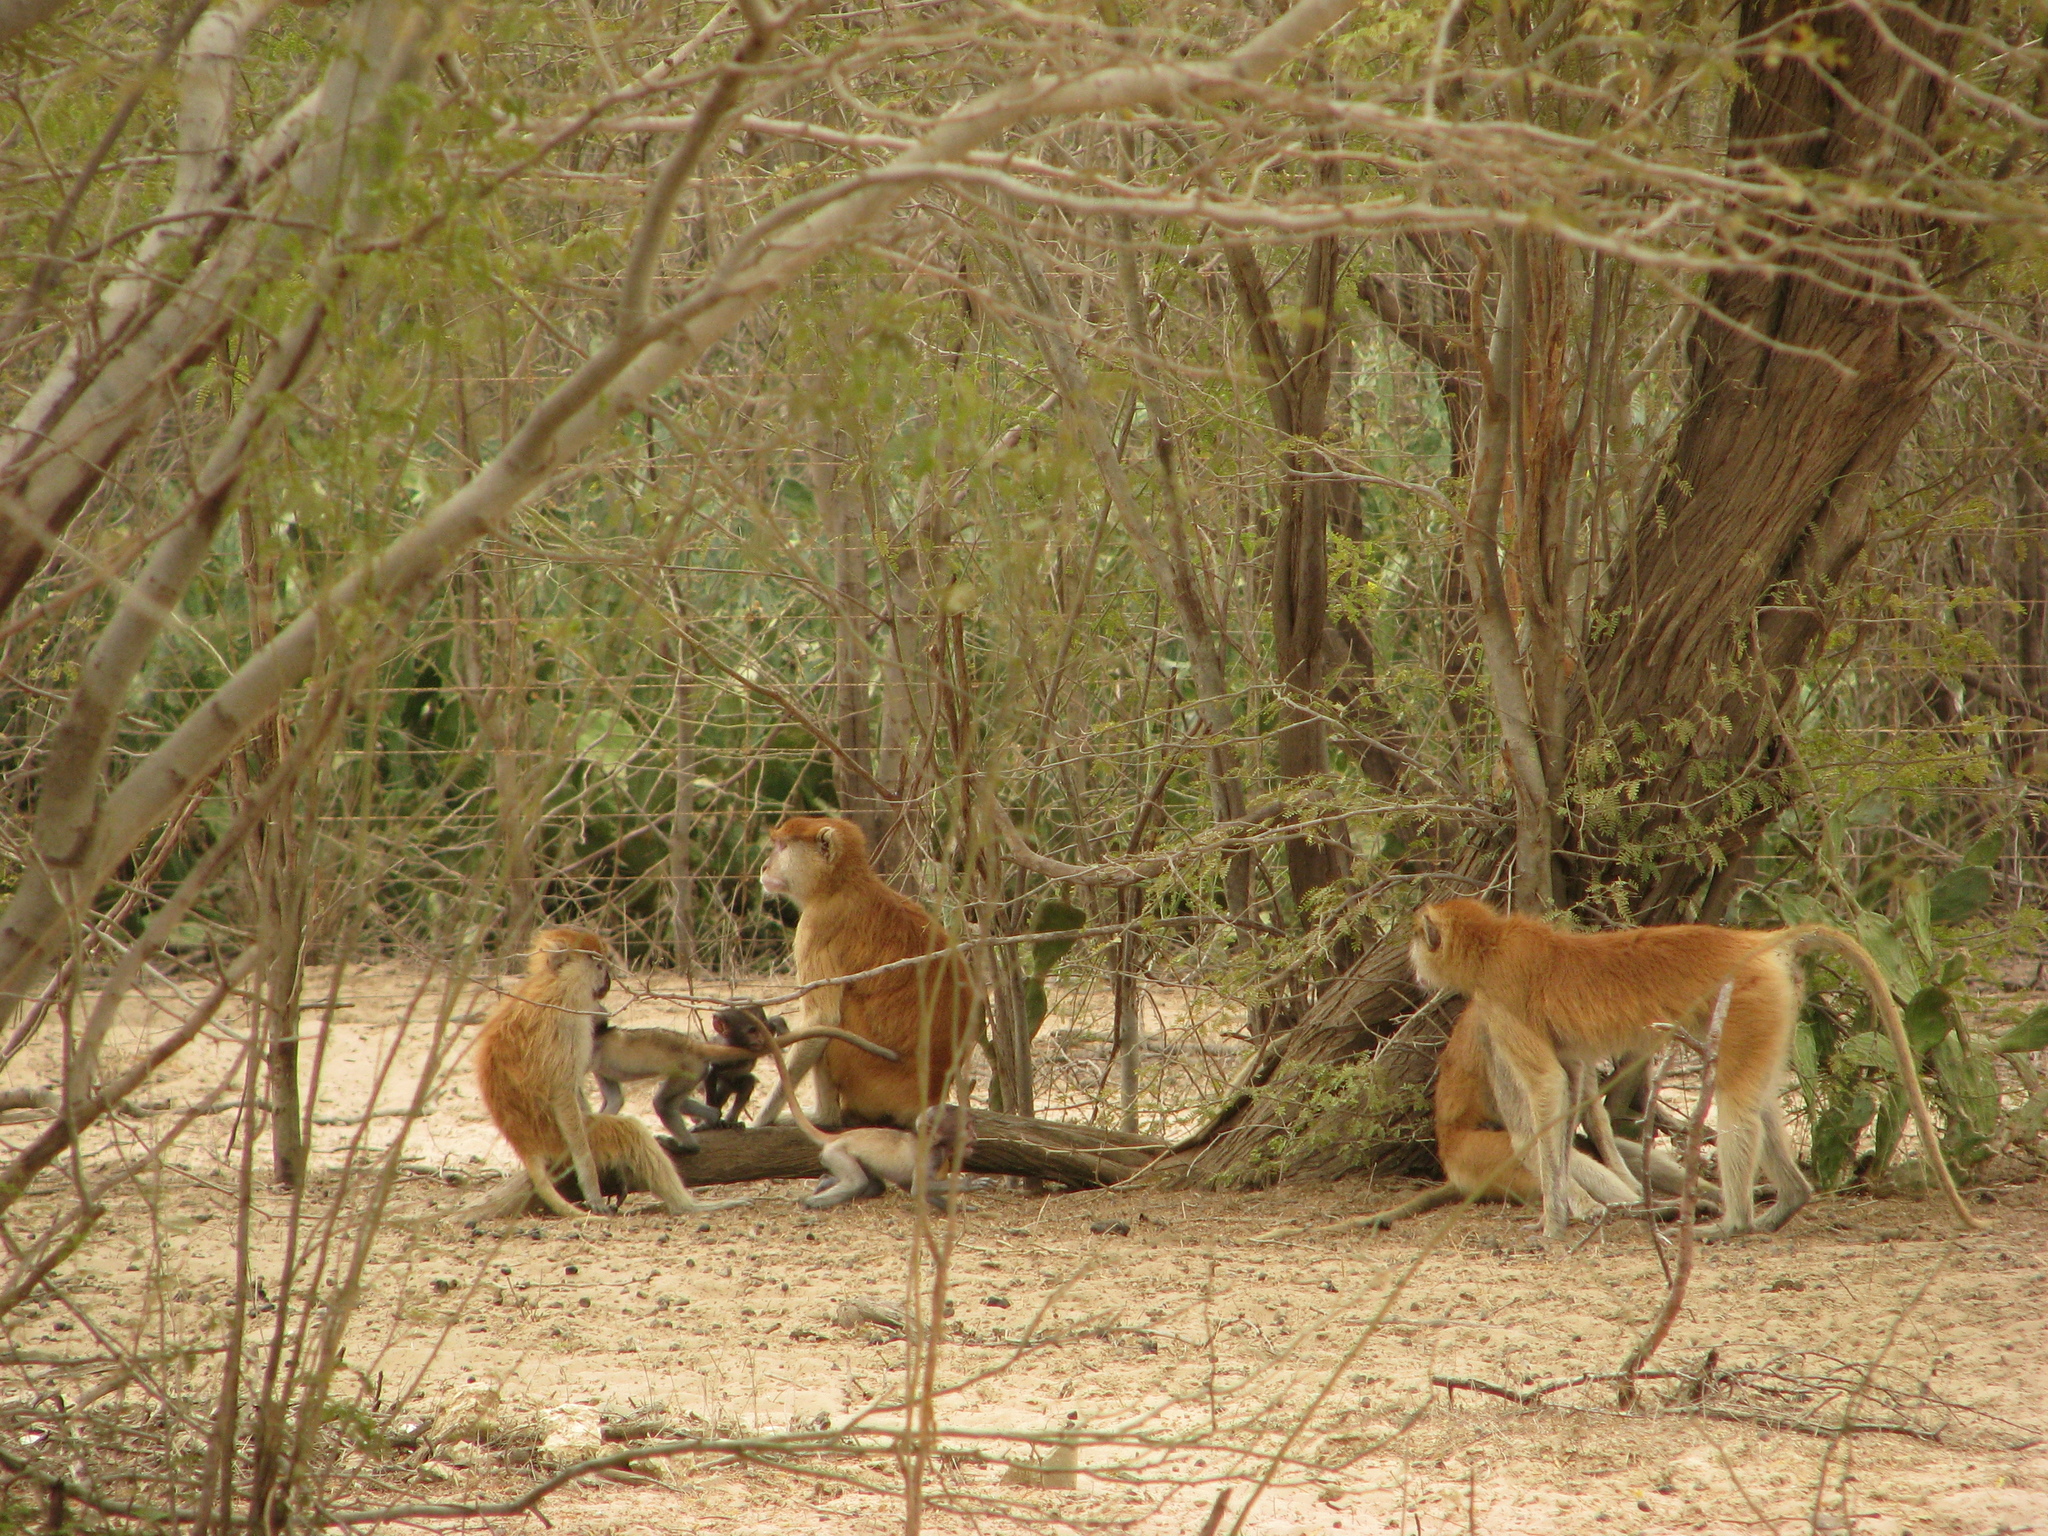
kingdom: Animalia
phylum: Chordata
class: Mammalia
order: Primates
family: Cercopithecidae
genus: Erythrocebus
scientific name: Erythrocebus patas
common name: Patas monkey
